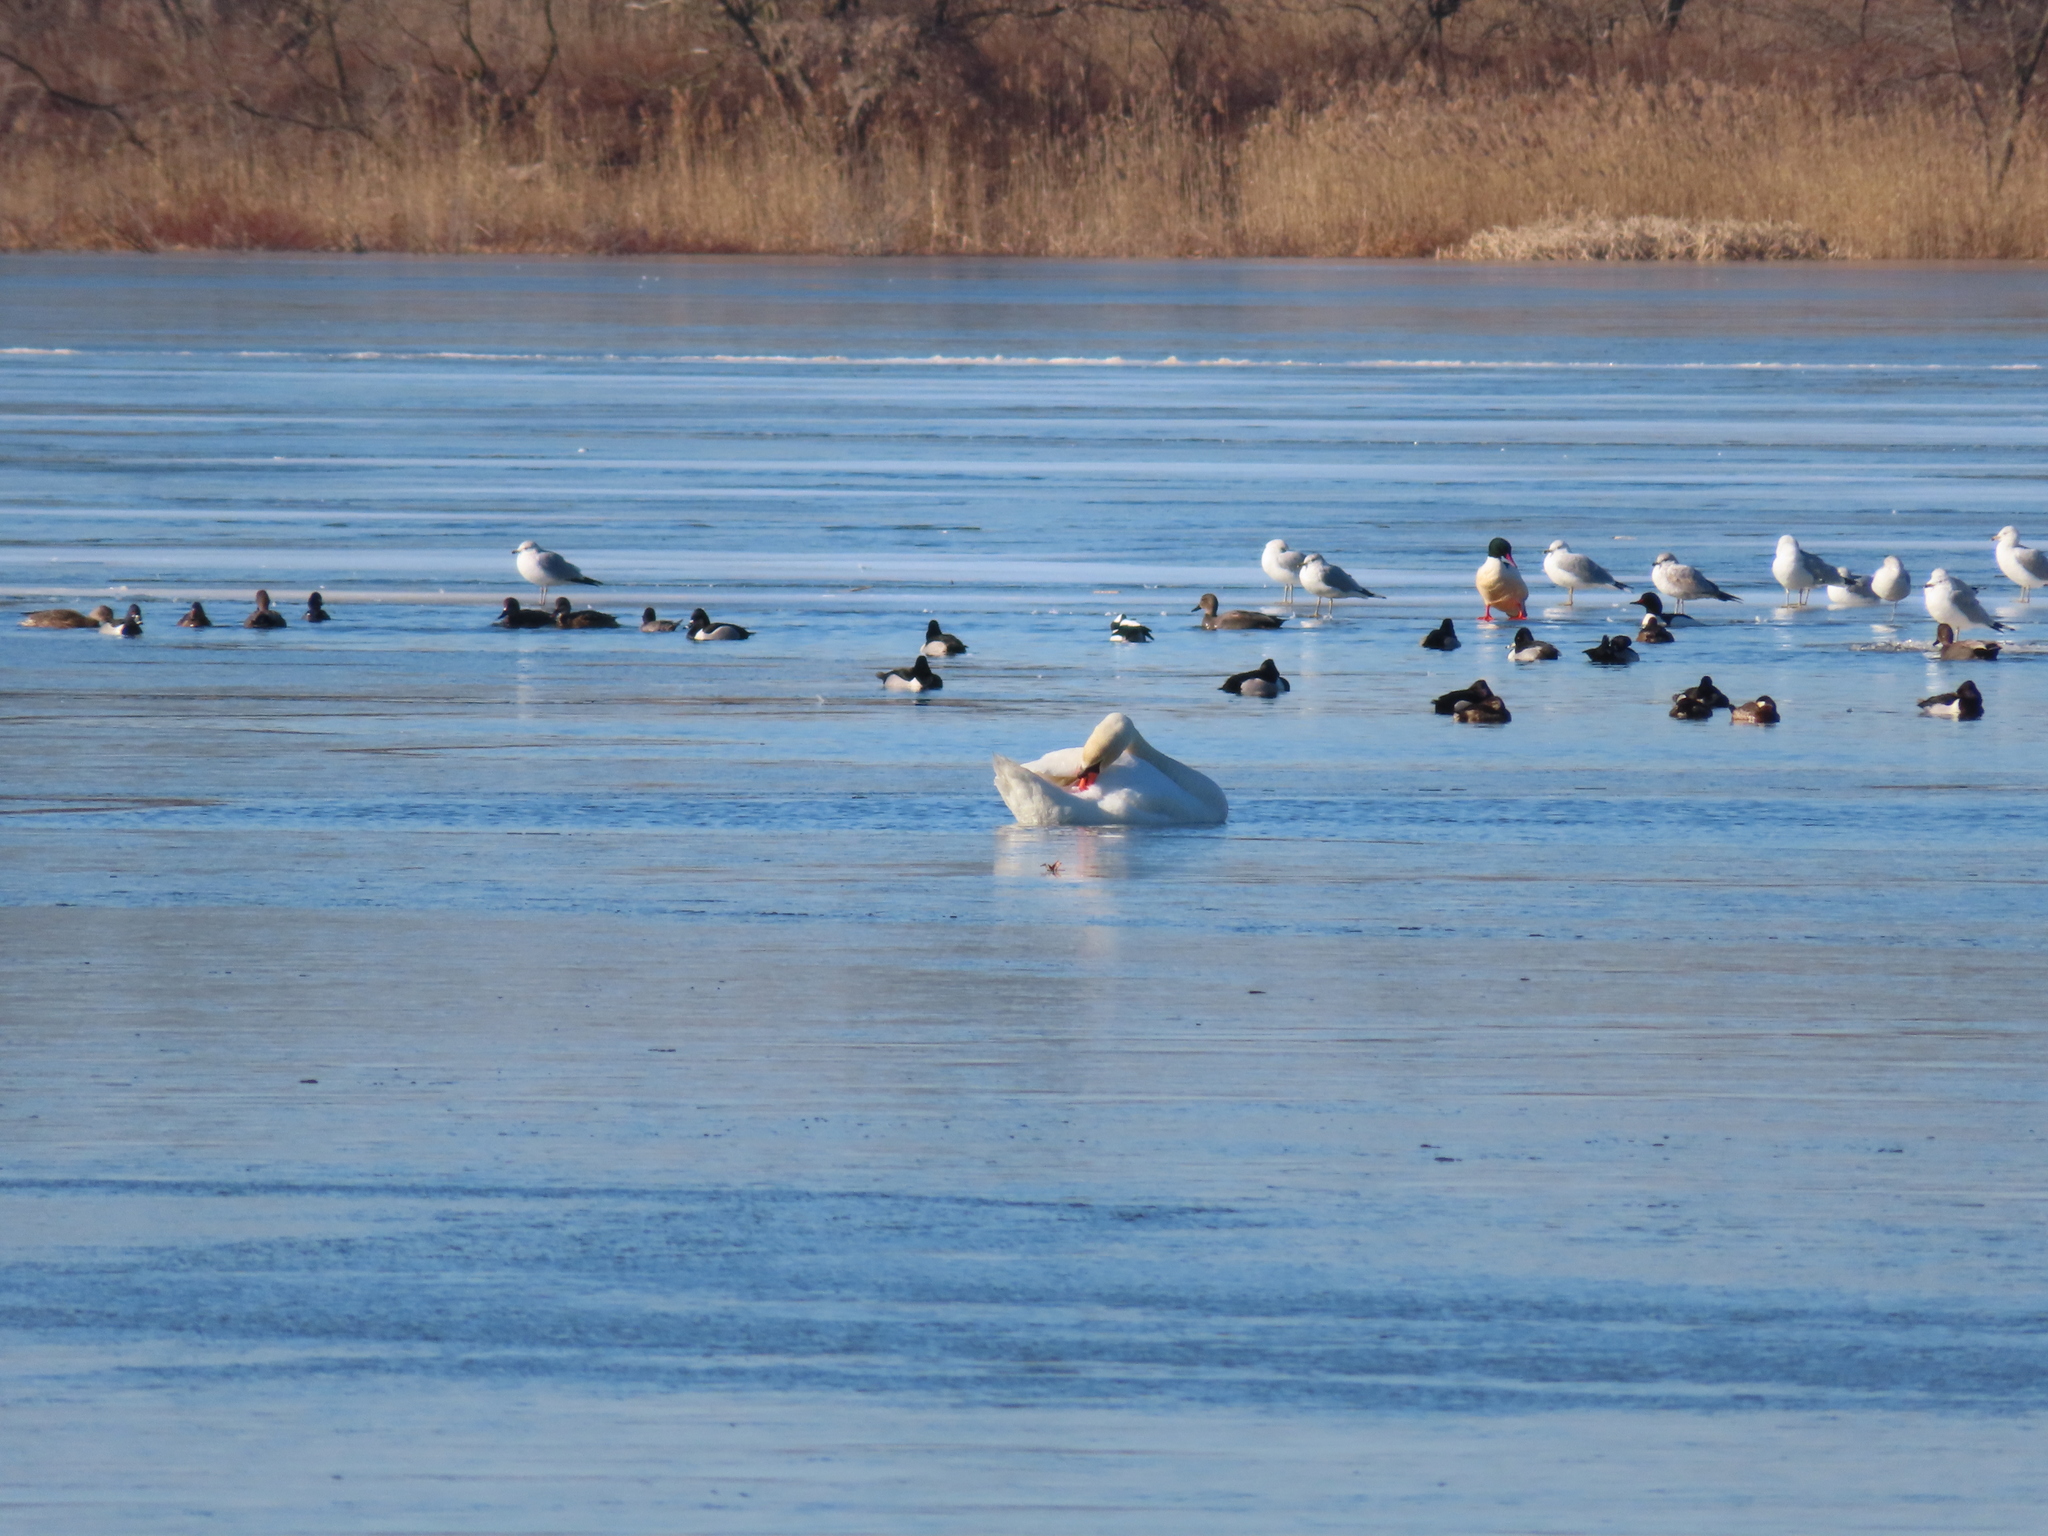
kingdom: Animalia
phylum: Chordata
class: Aves
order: Anseriformes
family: Anatidae
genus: Mareca
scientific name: Mareca strepera
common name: Gadwall
